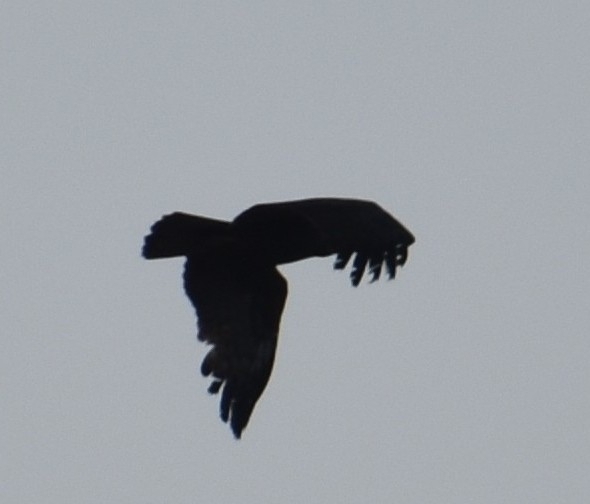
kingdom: Animalia
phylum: Chordata
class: Aves
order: Accipitriformes
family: Accipitridae
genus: Hieraaetus
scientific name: Hieraaetus wahlbergi
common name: Wahlberg's eagle
